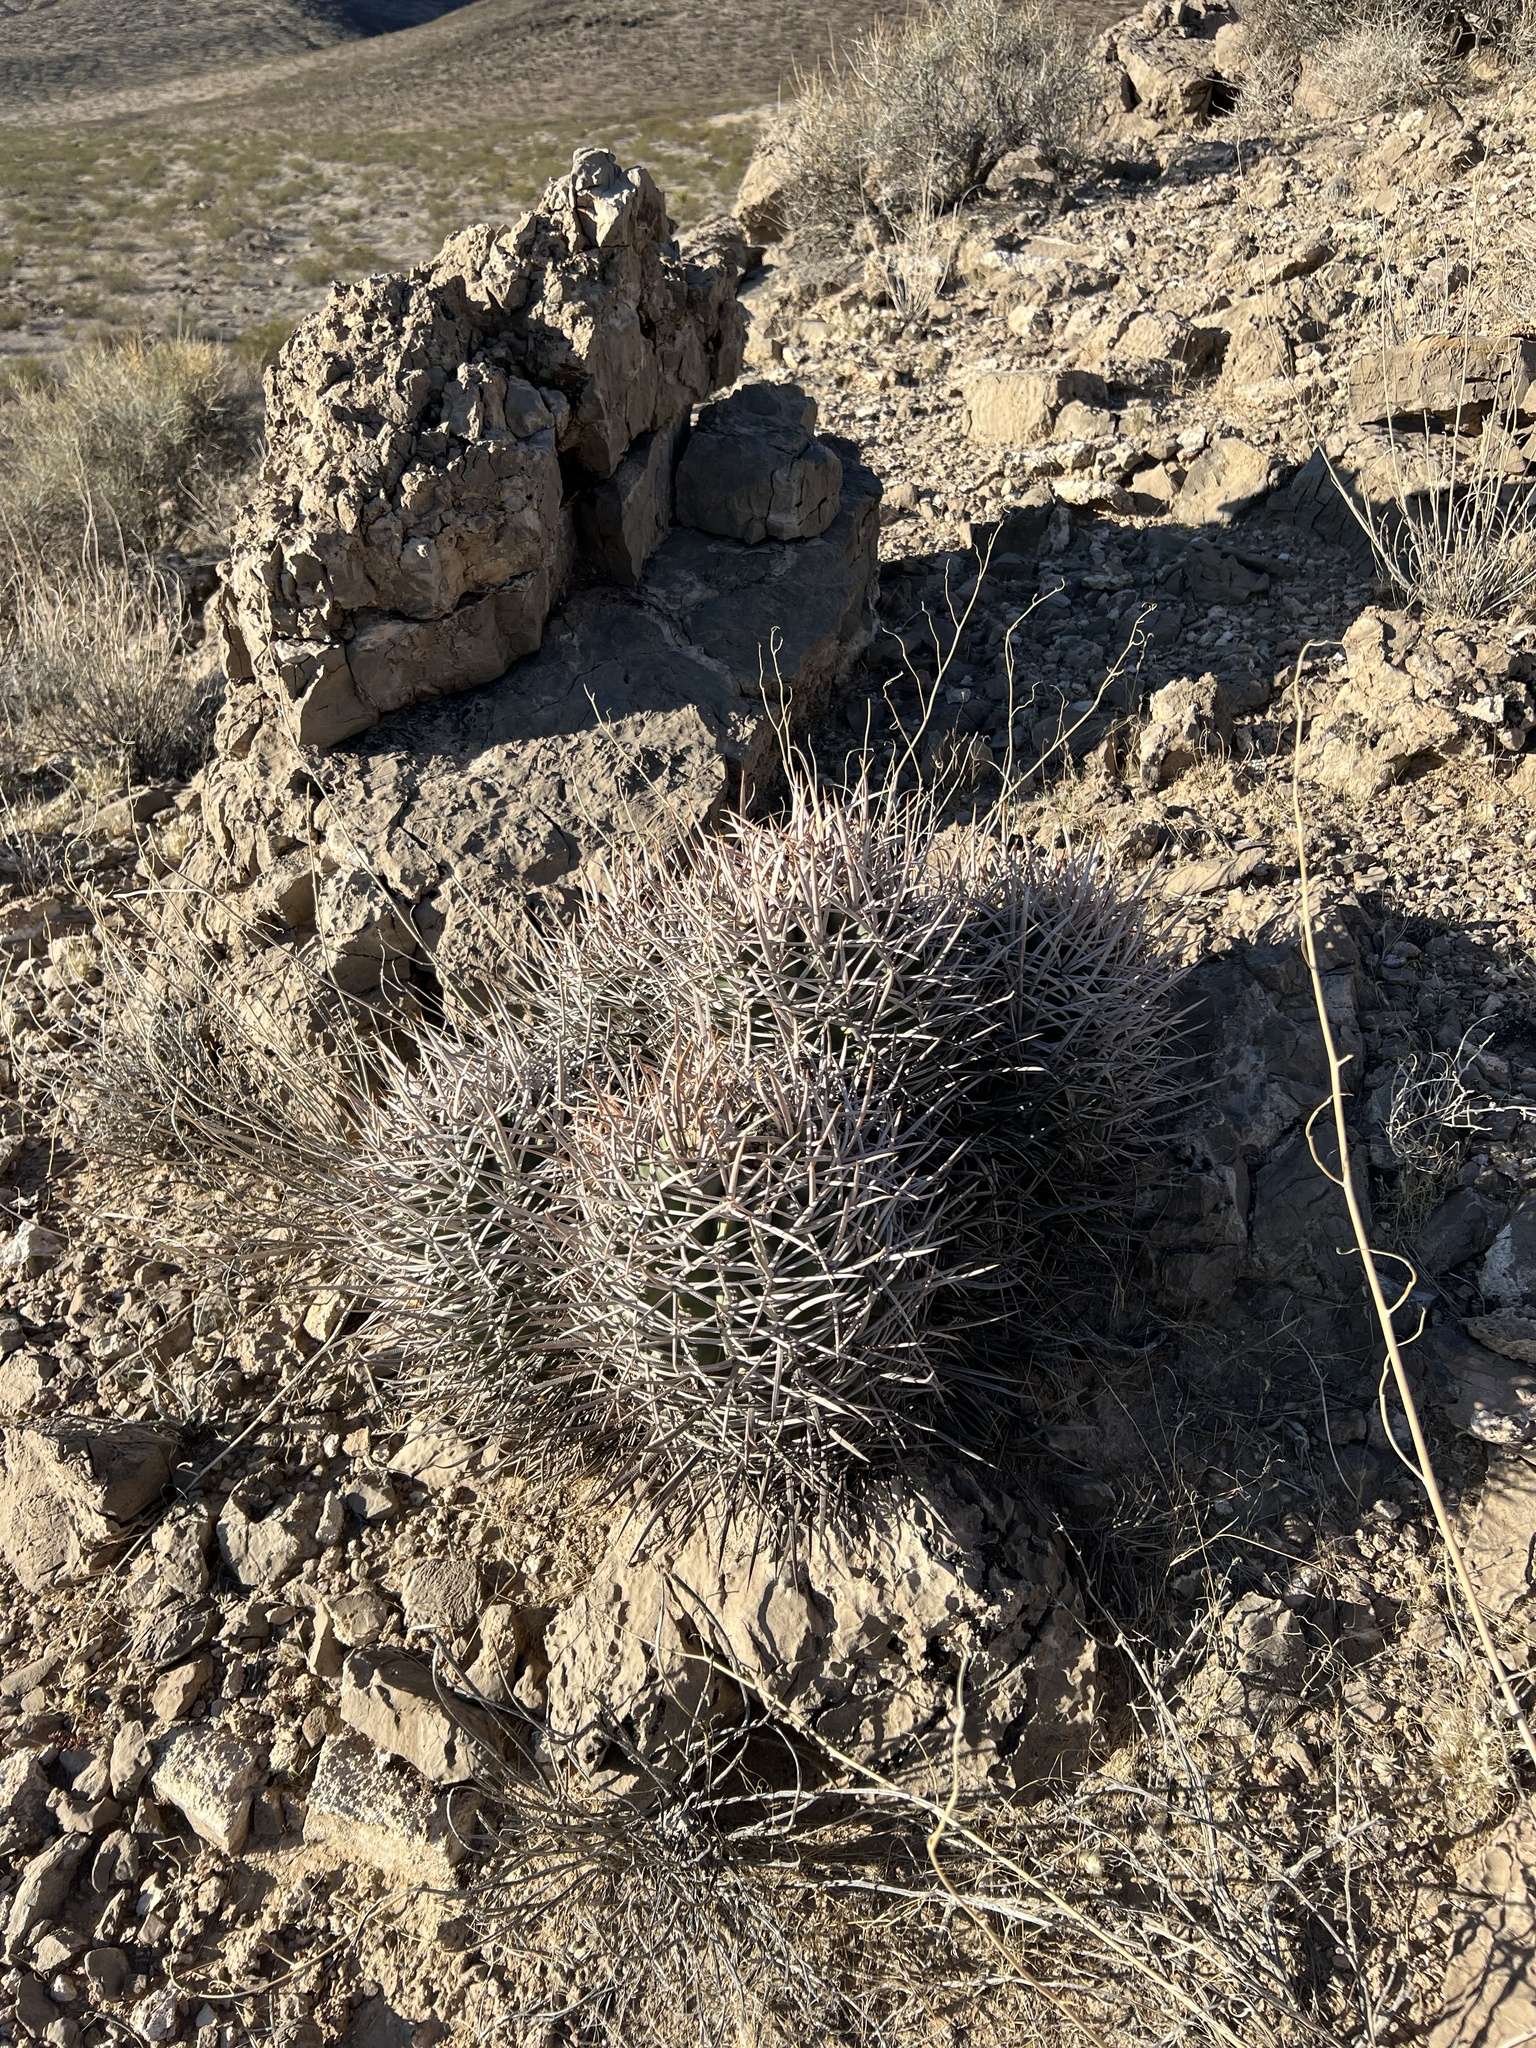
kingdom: Plantae
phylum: Tracheophyta
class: Magnoliopsida
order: Caryophyllales
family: Cactaceae
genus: Echinocactus
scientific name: Echinocactus polycephalus
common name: Cottontop cactus
